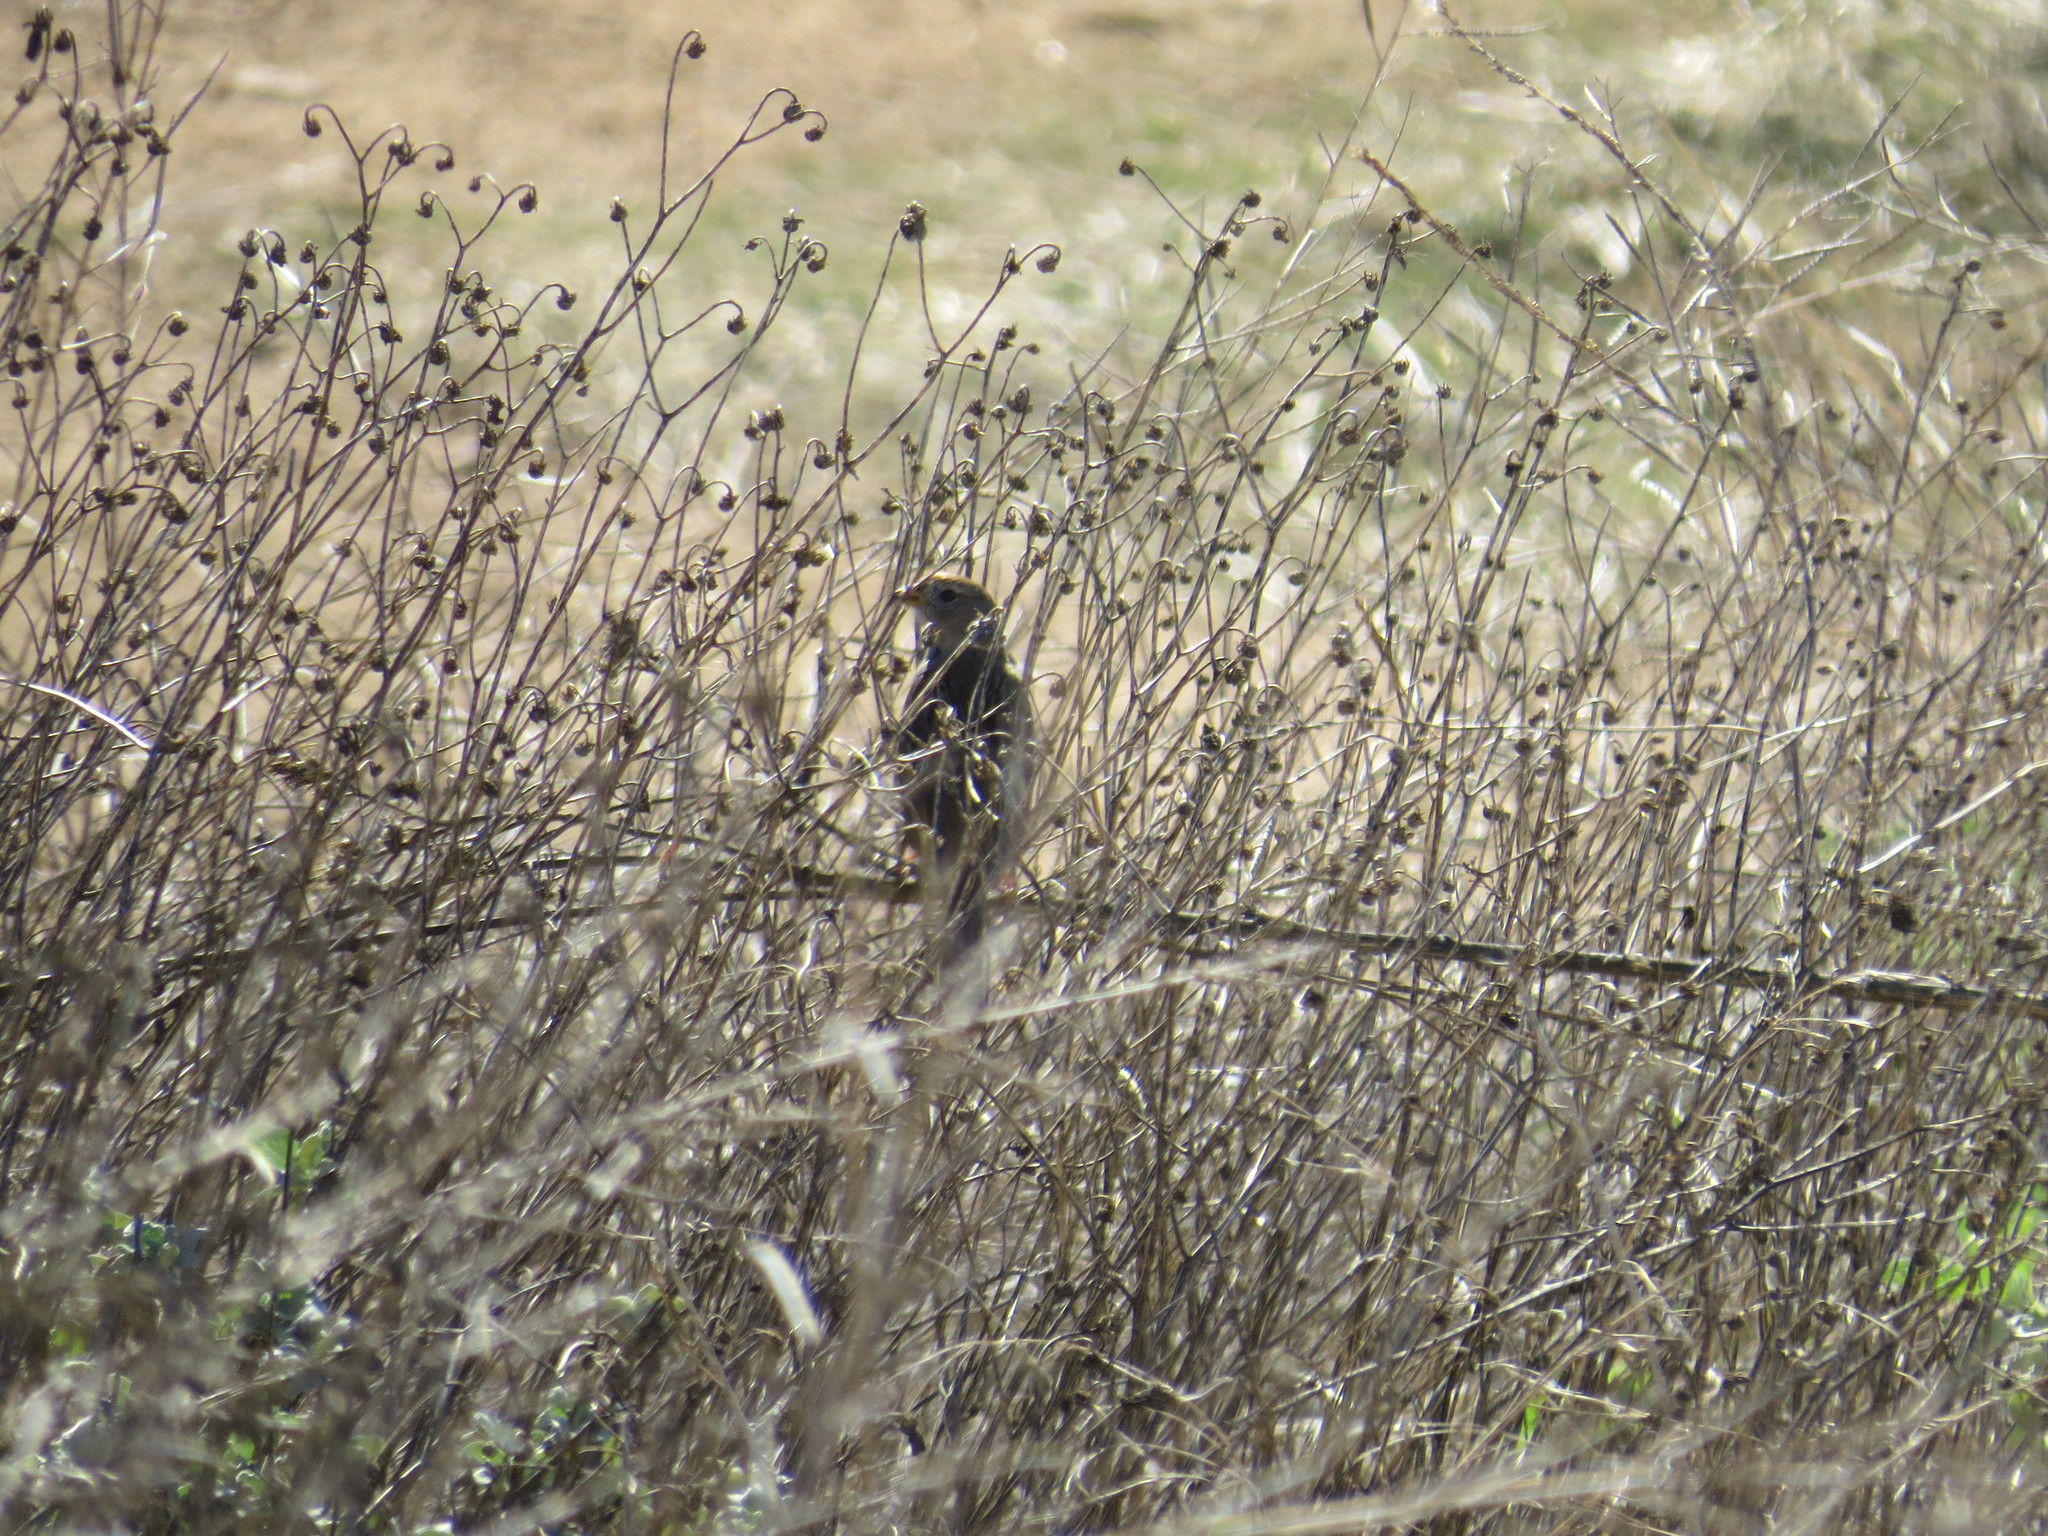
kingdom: Animalia
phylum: Chordata
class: Aves
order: Passeriformes
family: Passerellidae
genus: Zonotrichia
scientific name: Zonotrichia leucophrys
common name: White-crowned sparrow
